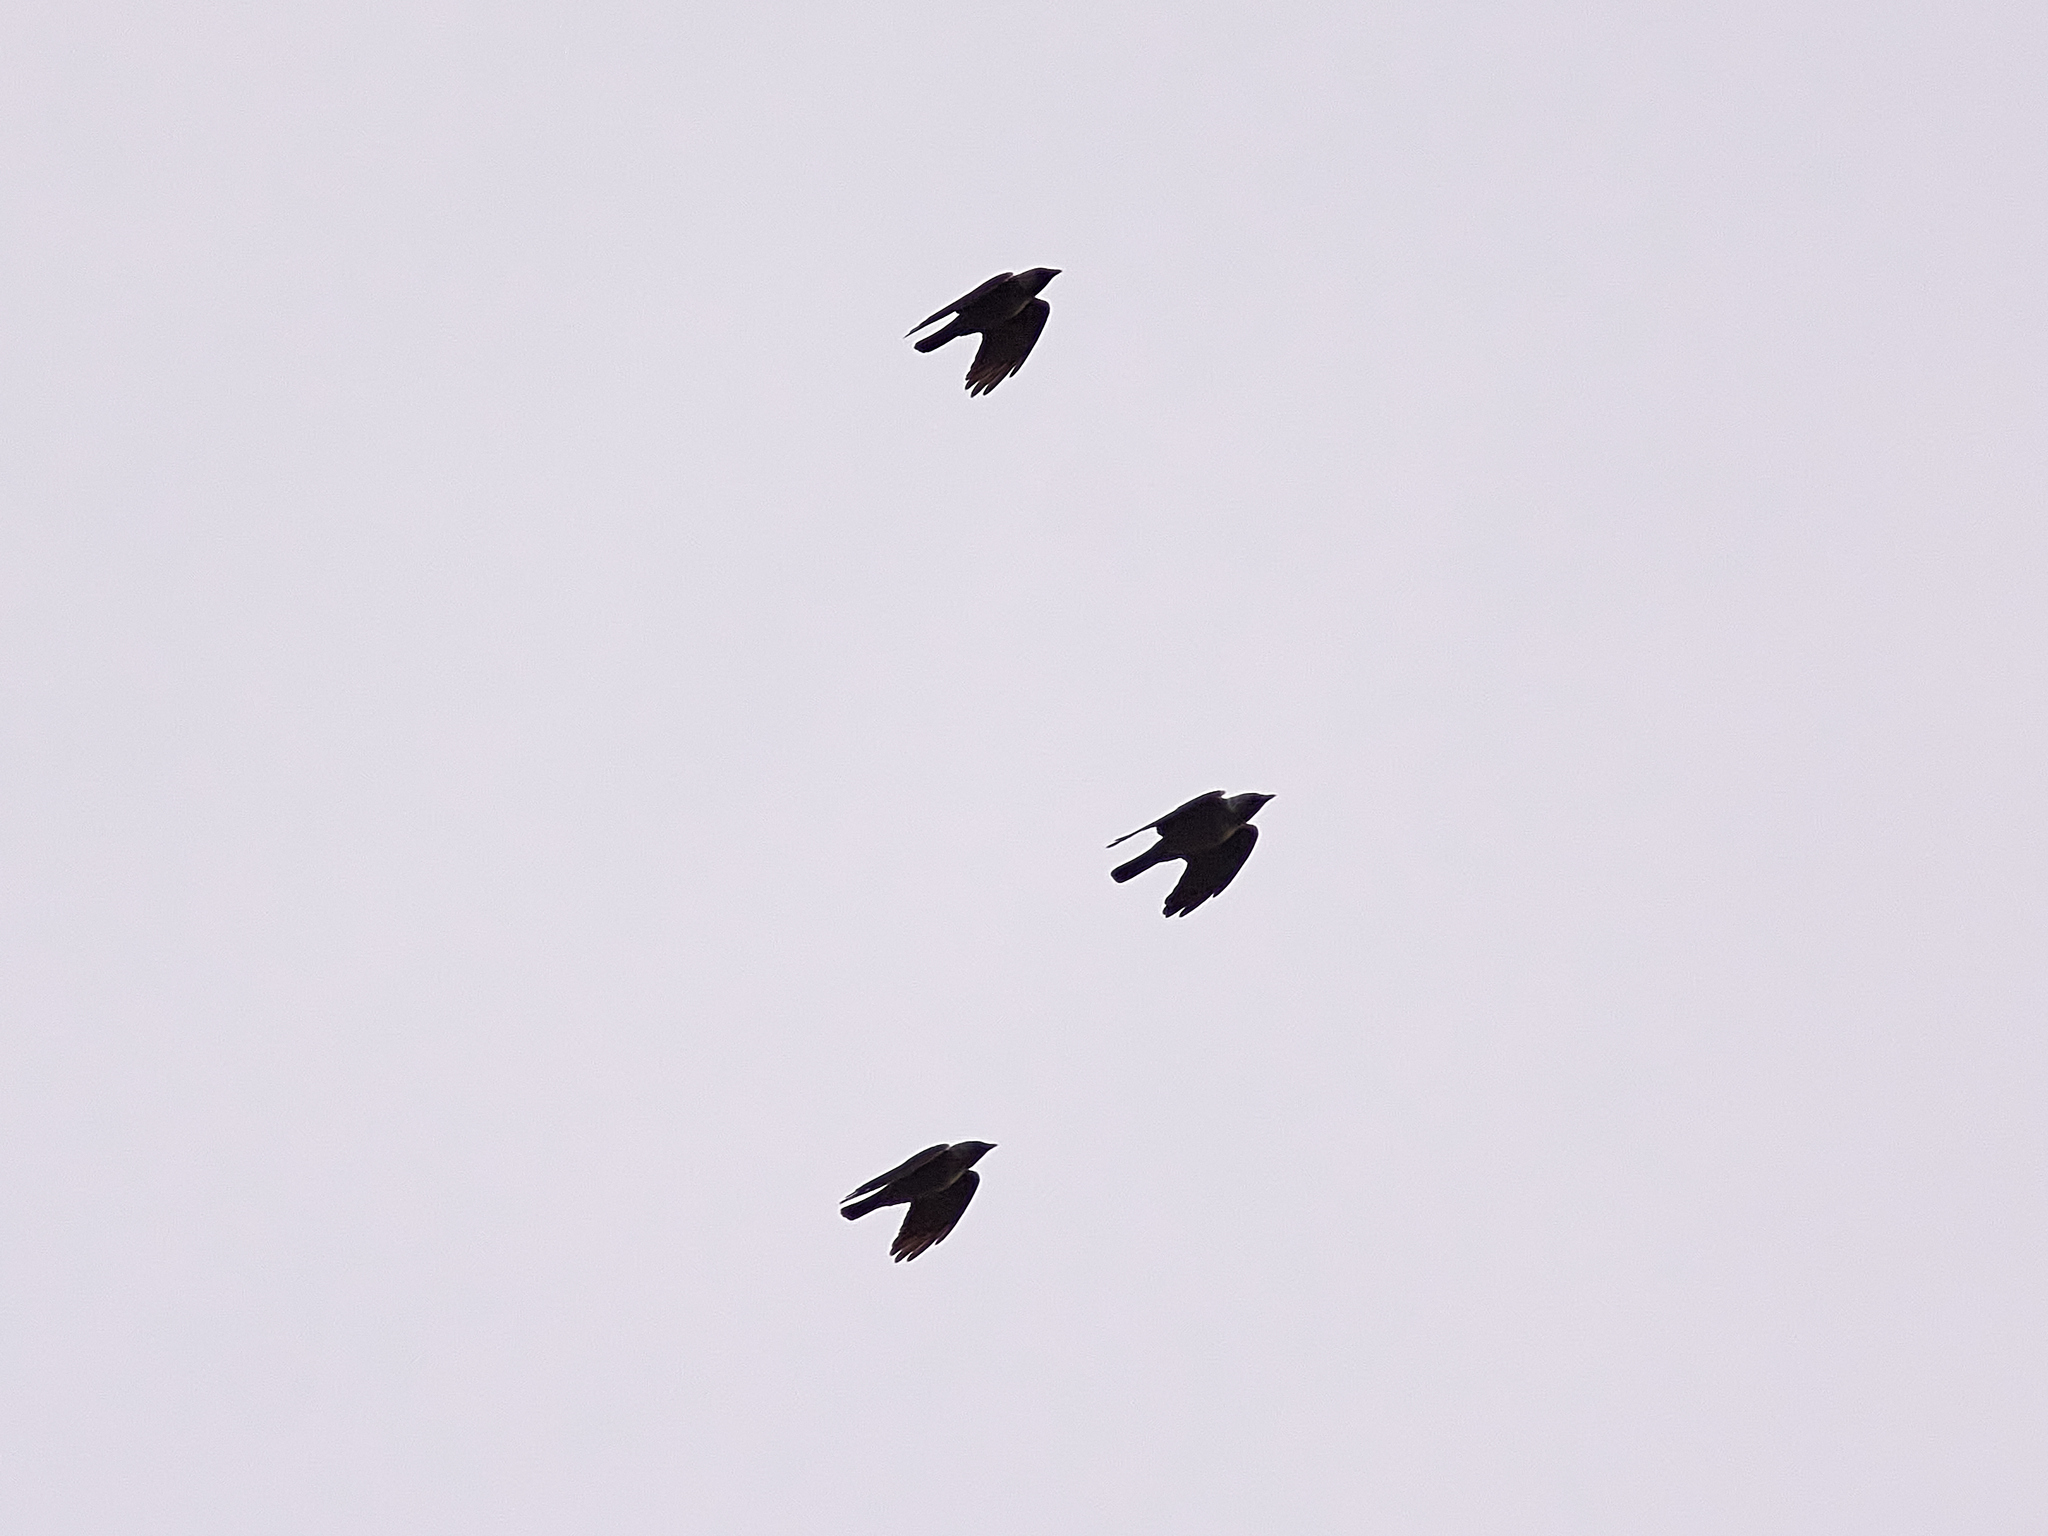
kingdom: Animalia
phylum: Chordata
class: Aves
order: Passeriformes
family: Corvidae
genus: Coloeus
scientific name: Coloeus monedula
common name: Western jackdaw
